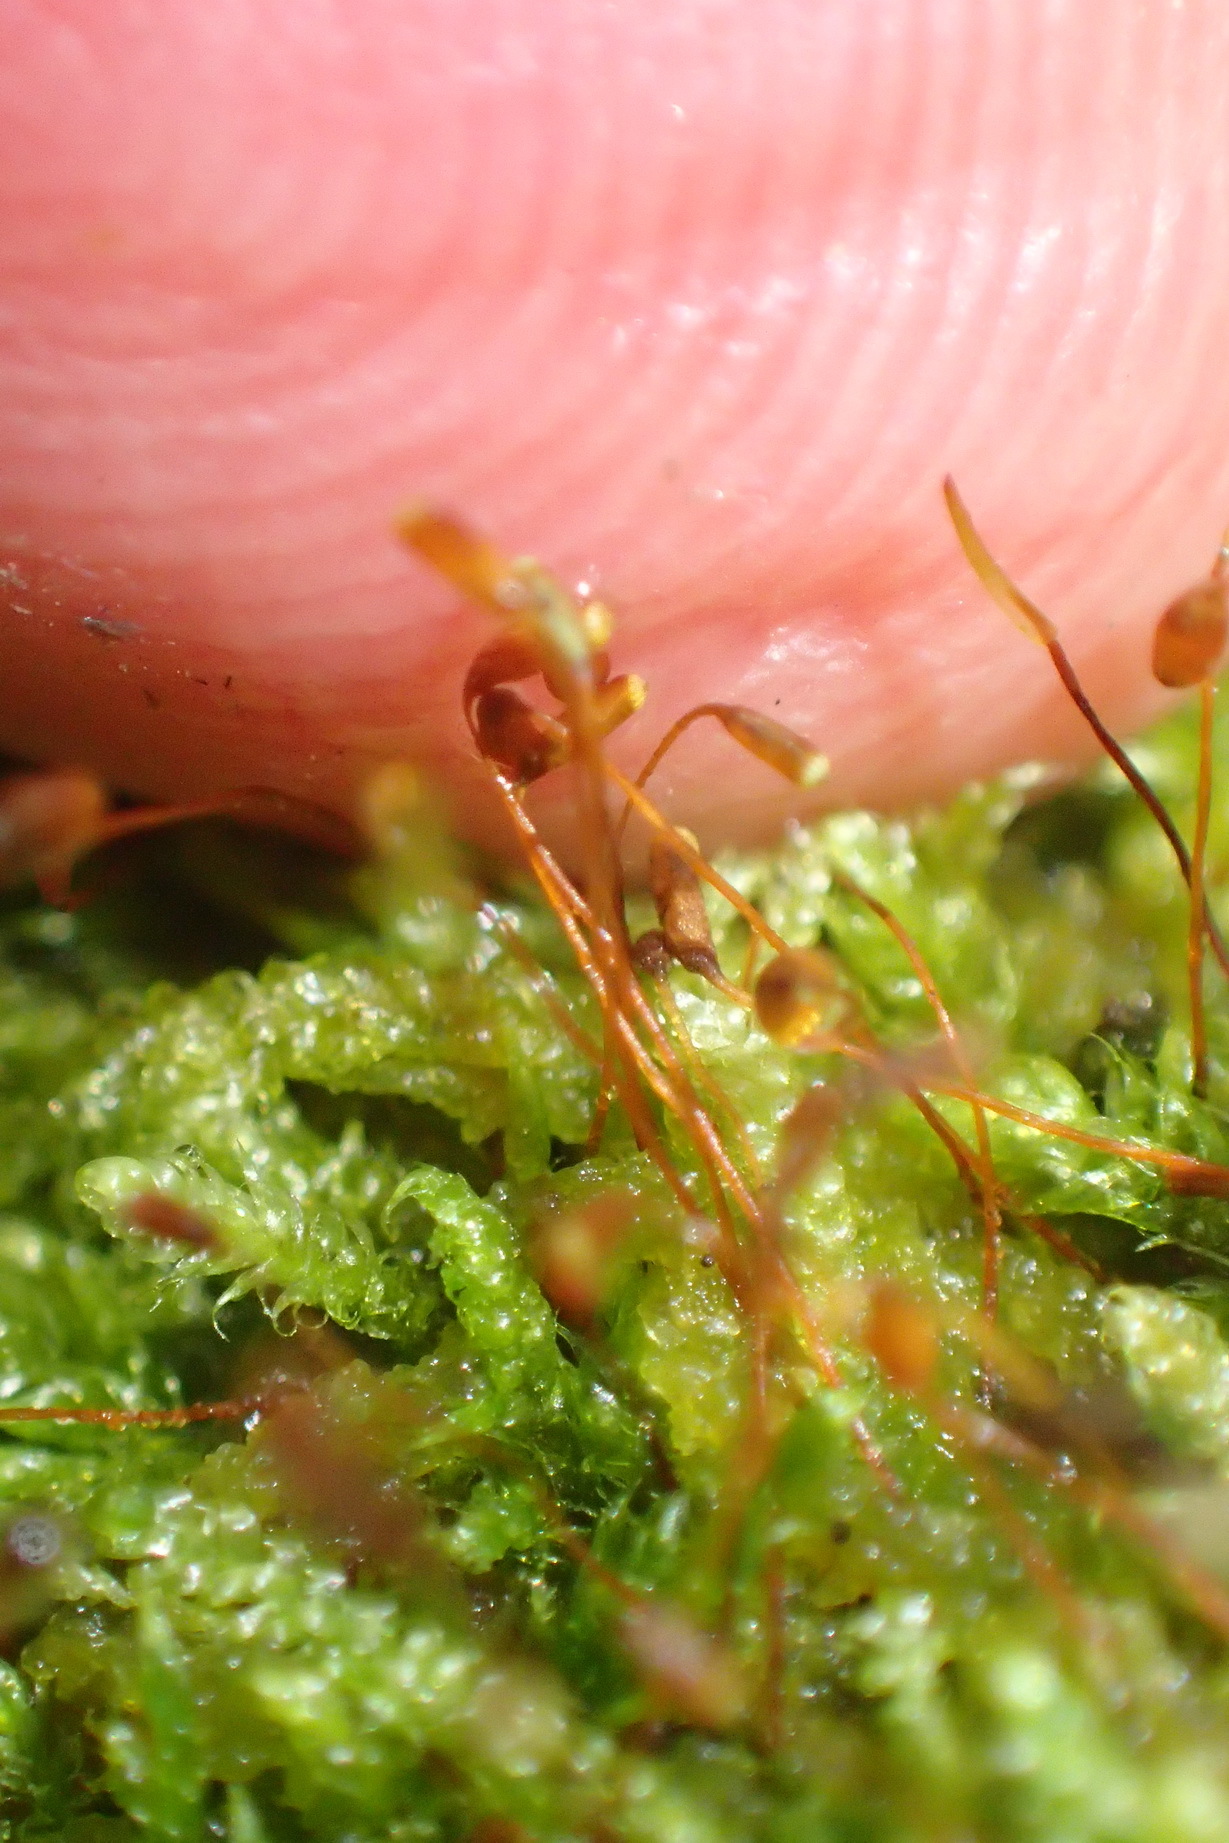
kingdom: Plantae
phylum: Bryophyta
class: Bryopsida
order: Hypnales
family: Hypnaceae
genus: Hypnum
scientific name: Hypnum cupressiforme
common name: Cypress-leaved plait-moss
